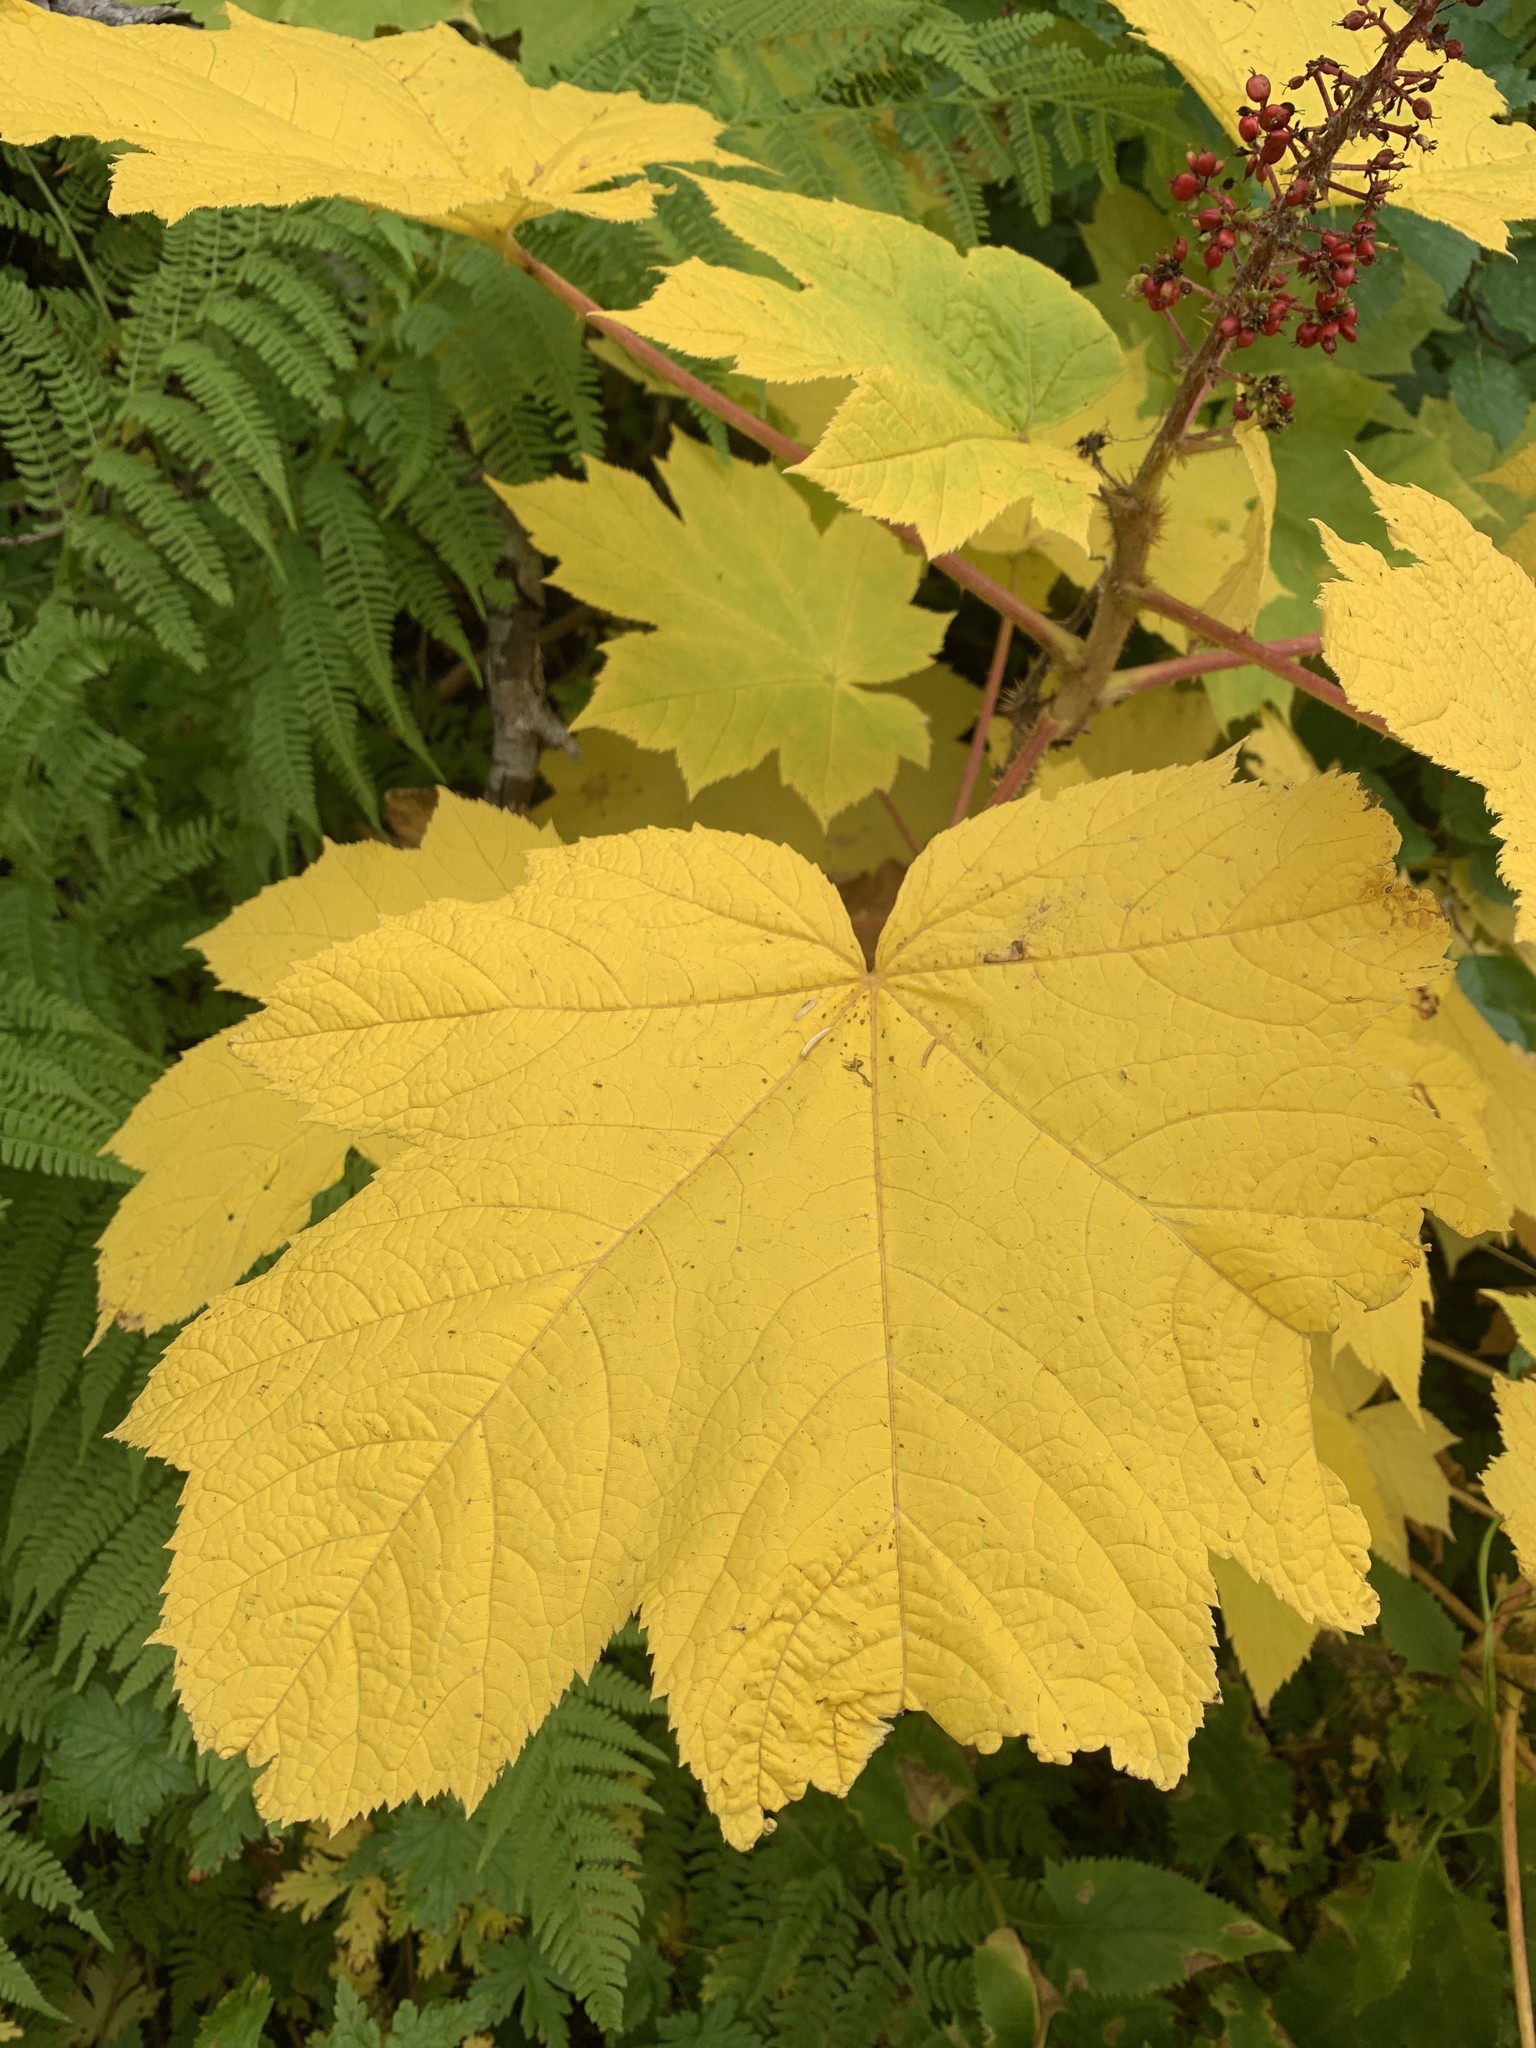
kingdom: Plantae
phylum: Tracheophyta
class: Magnoliopsida
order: Apiales
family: Araliaceae
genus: Oplopanax
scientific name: Oplopanax horridus
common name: Devil's walking-stick
